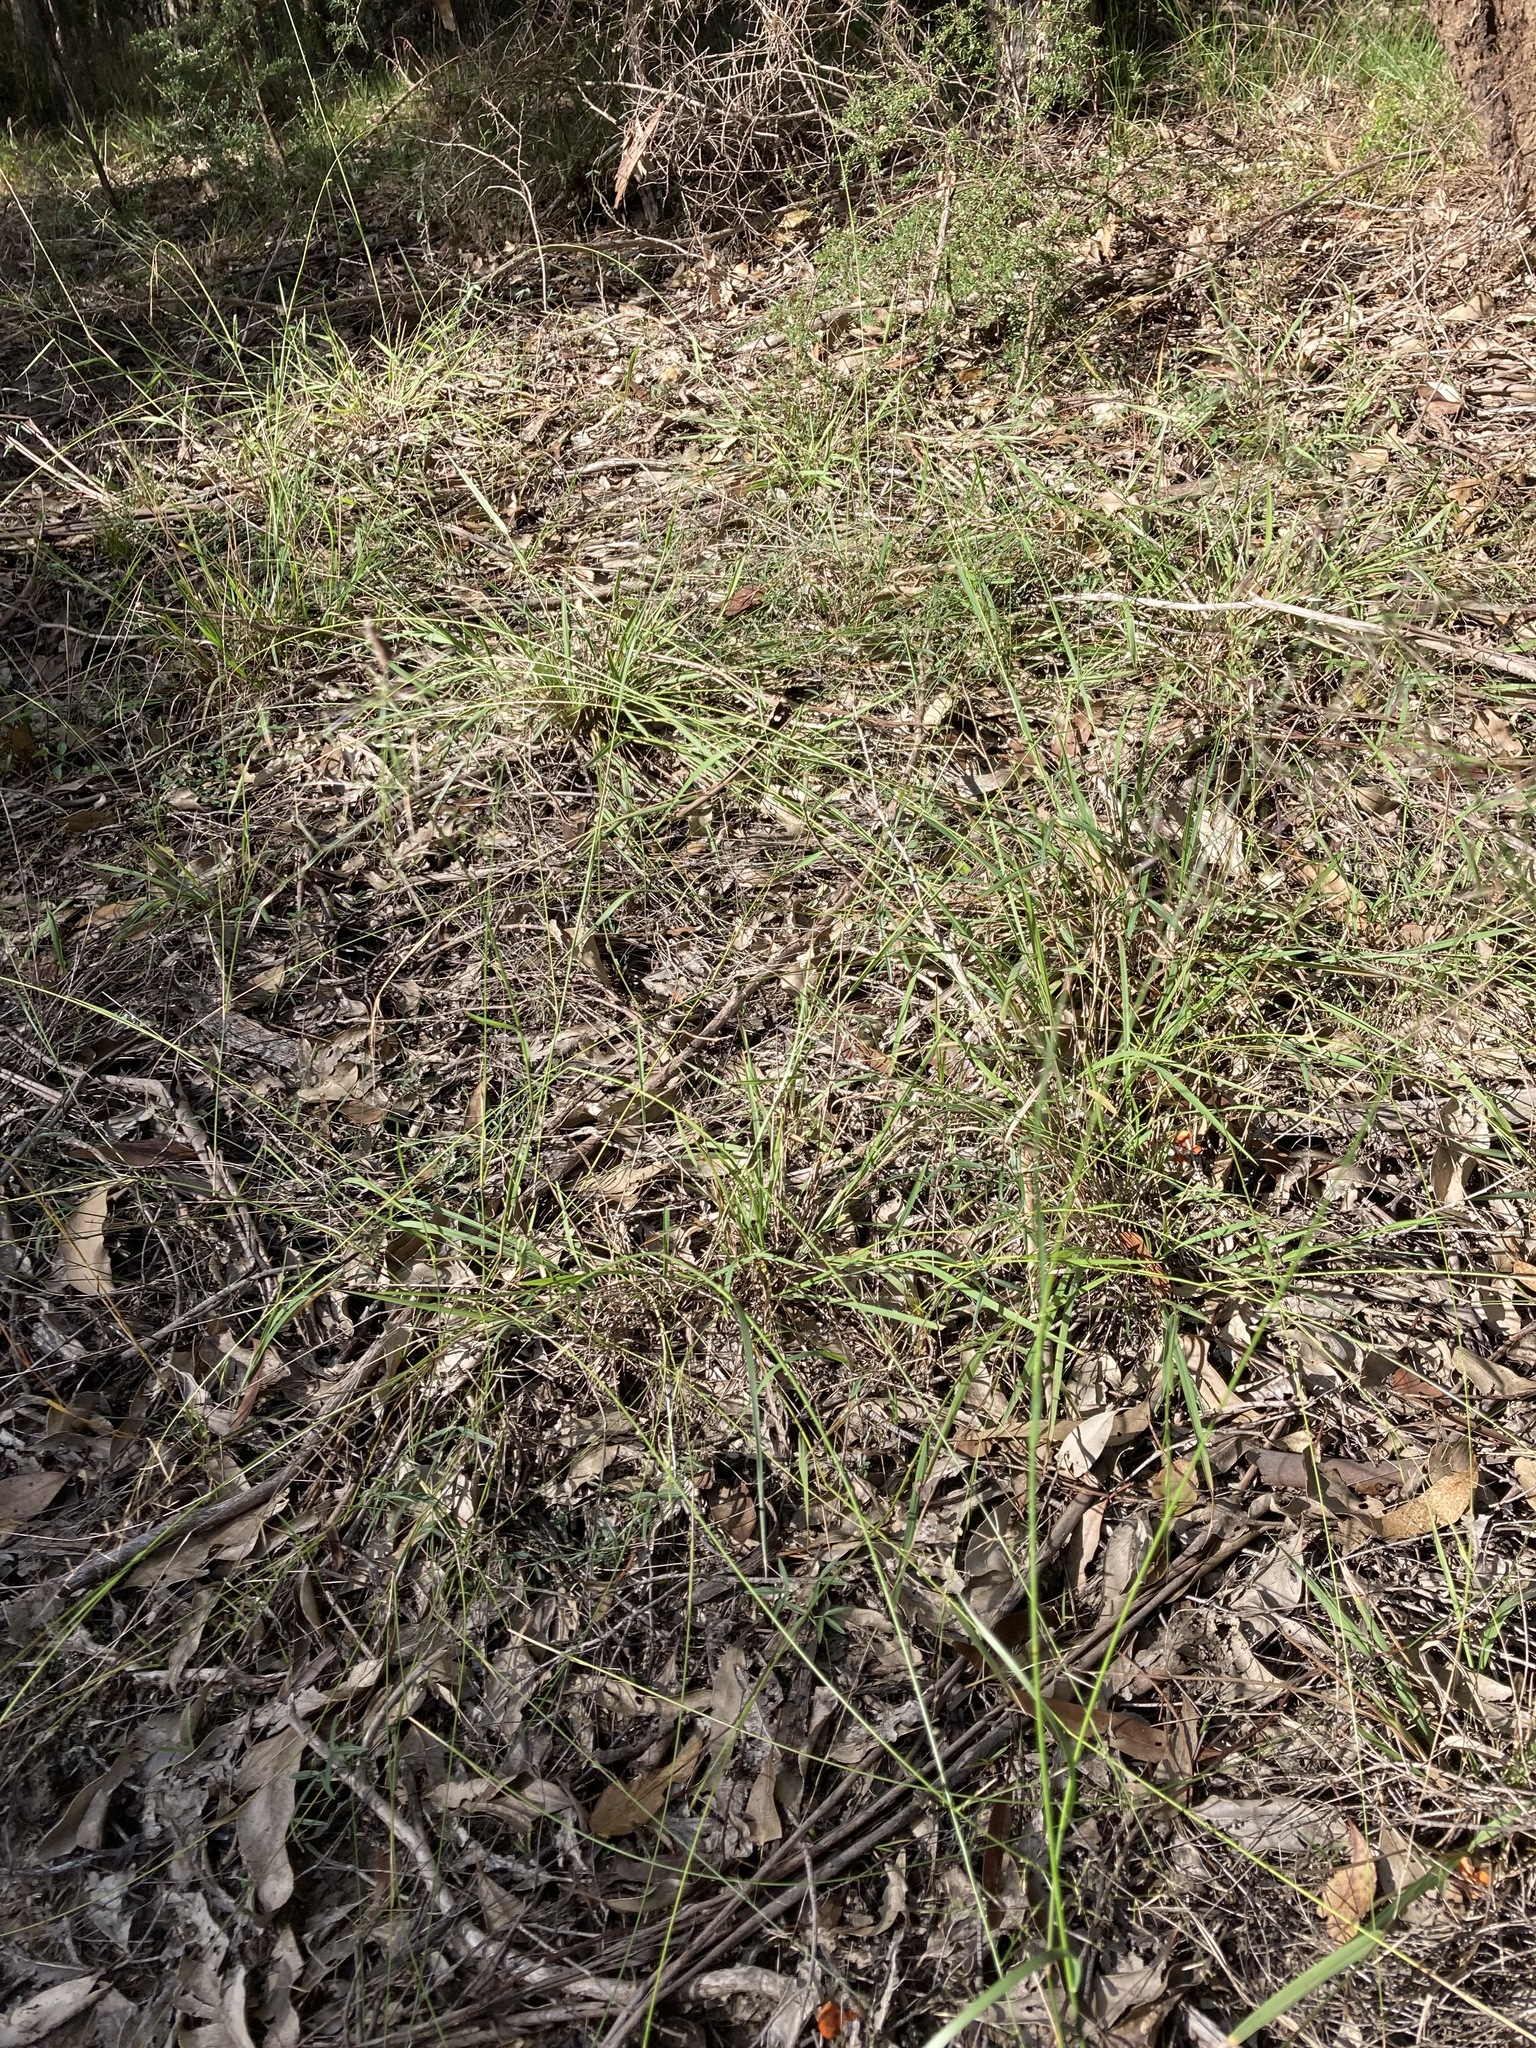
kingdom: Plantae
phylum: Tracheophyta
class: Liliopsida
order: Poales
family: Poaceae
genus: Aristida
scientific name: Aristida vagans
